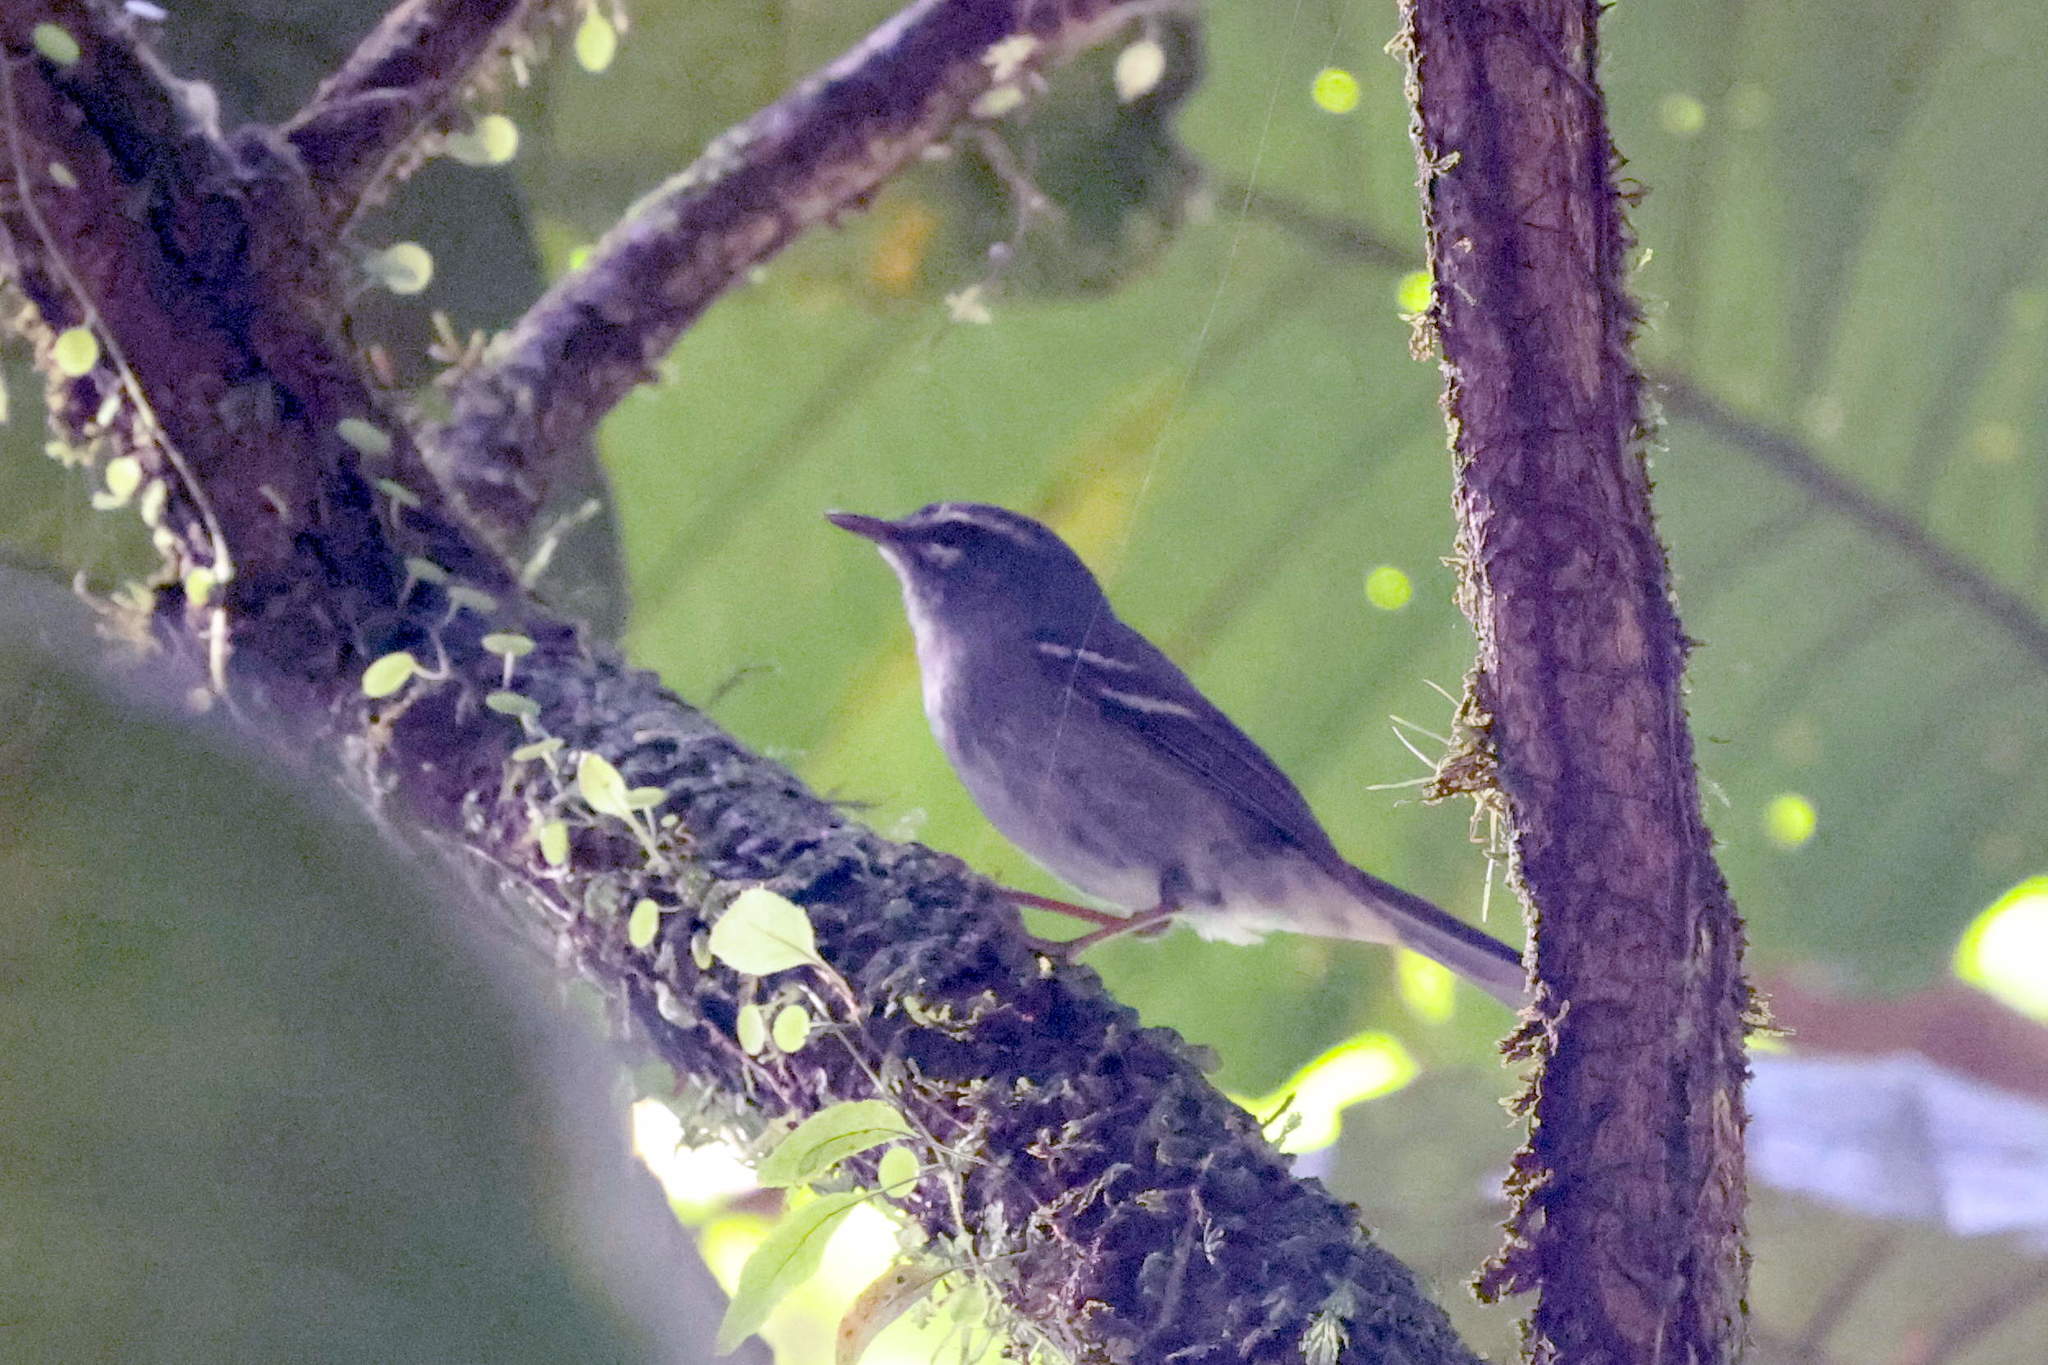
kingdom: Animalia
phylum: Chordata
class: Aves
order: Passeriformes
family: Parulidae
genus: Setophaga
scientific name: Setophaga plumbea
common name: Plumbeous warbler
